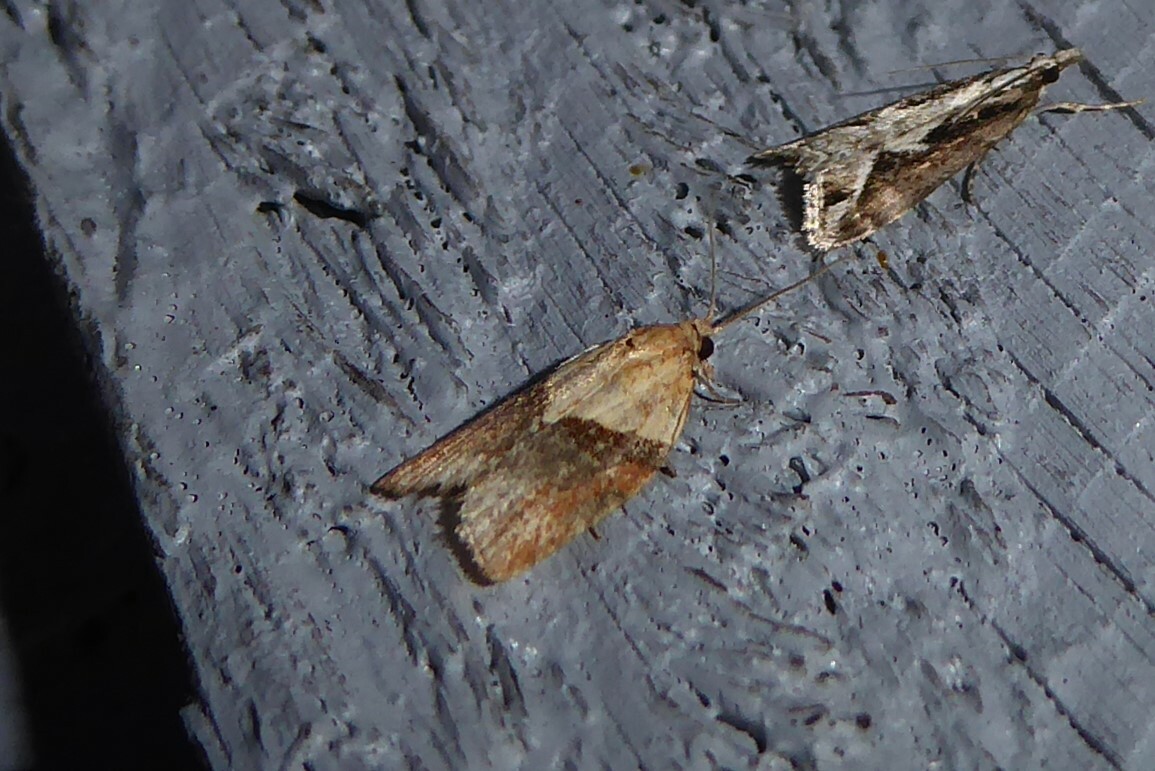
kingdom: Animalia
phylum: Arthropoda
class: Insecta
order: Lepidoptera
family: Tortricidae
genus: Epiphyas
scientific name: Epiphyas postvittana
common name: Light brown apple moth
